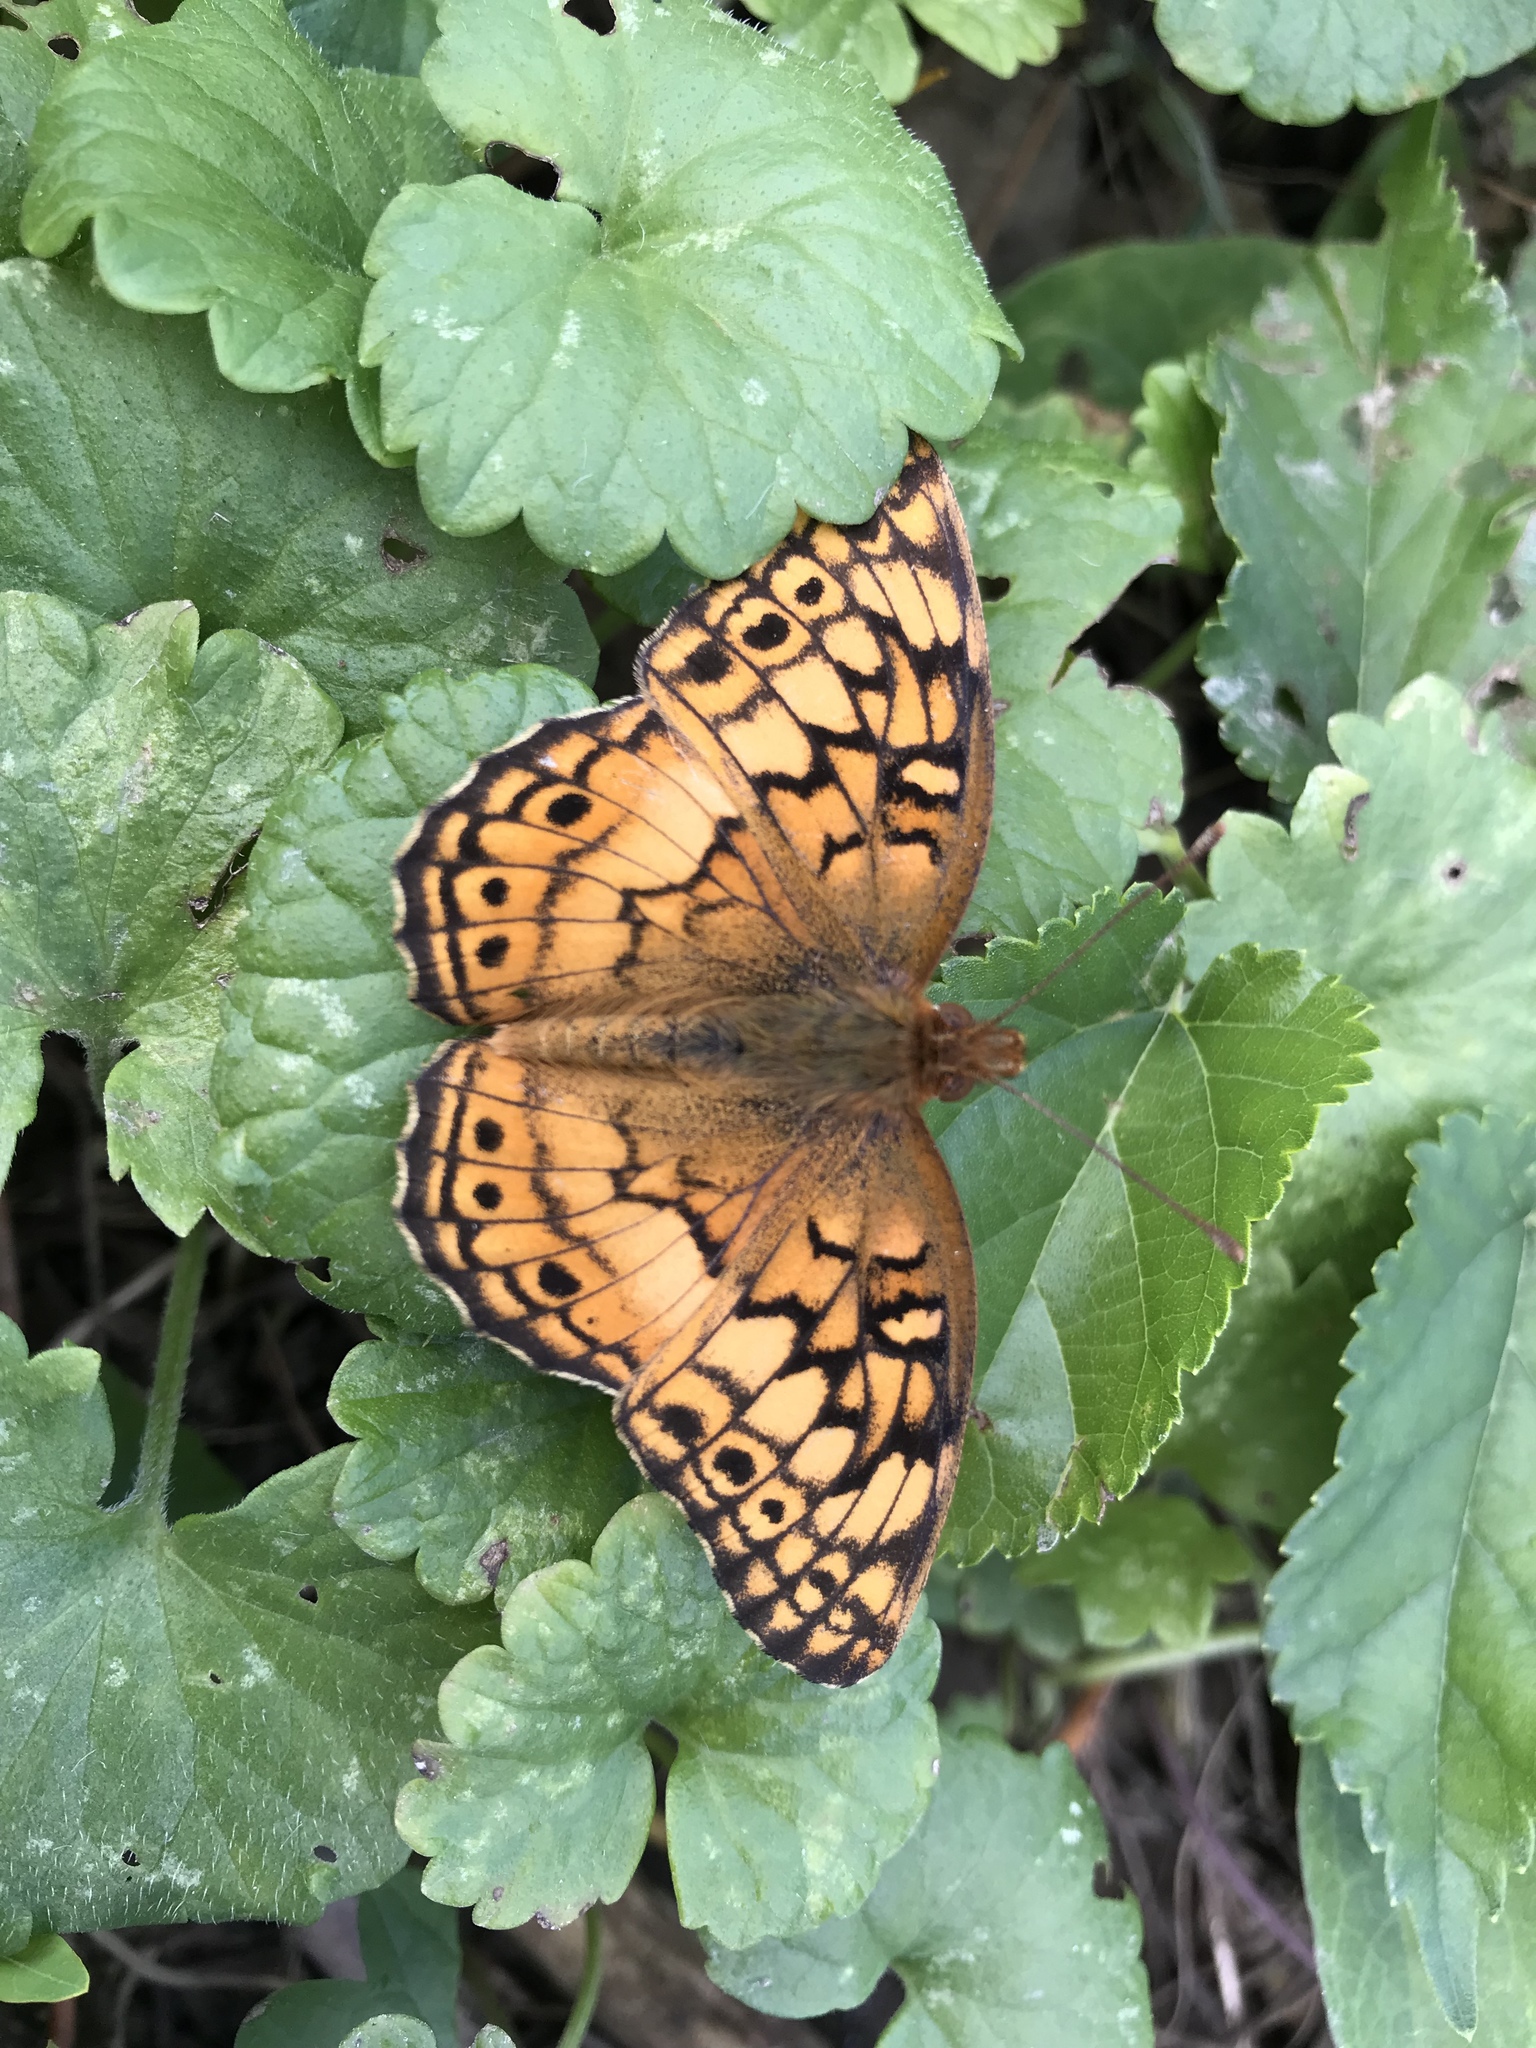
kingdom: Animalia
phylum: Arthropoda
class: Insecta
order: Lepidoptera
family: Nymphalidae
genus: Euptoieta
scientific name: Euptoieta claudia
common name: Variegated fritillary
